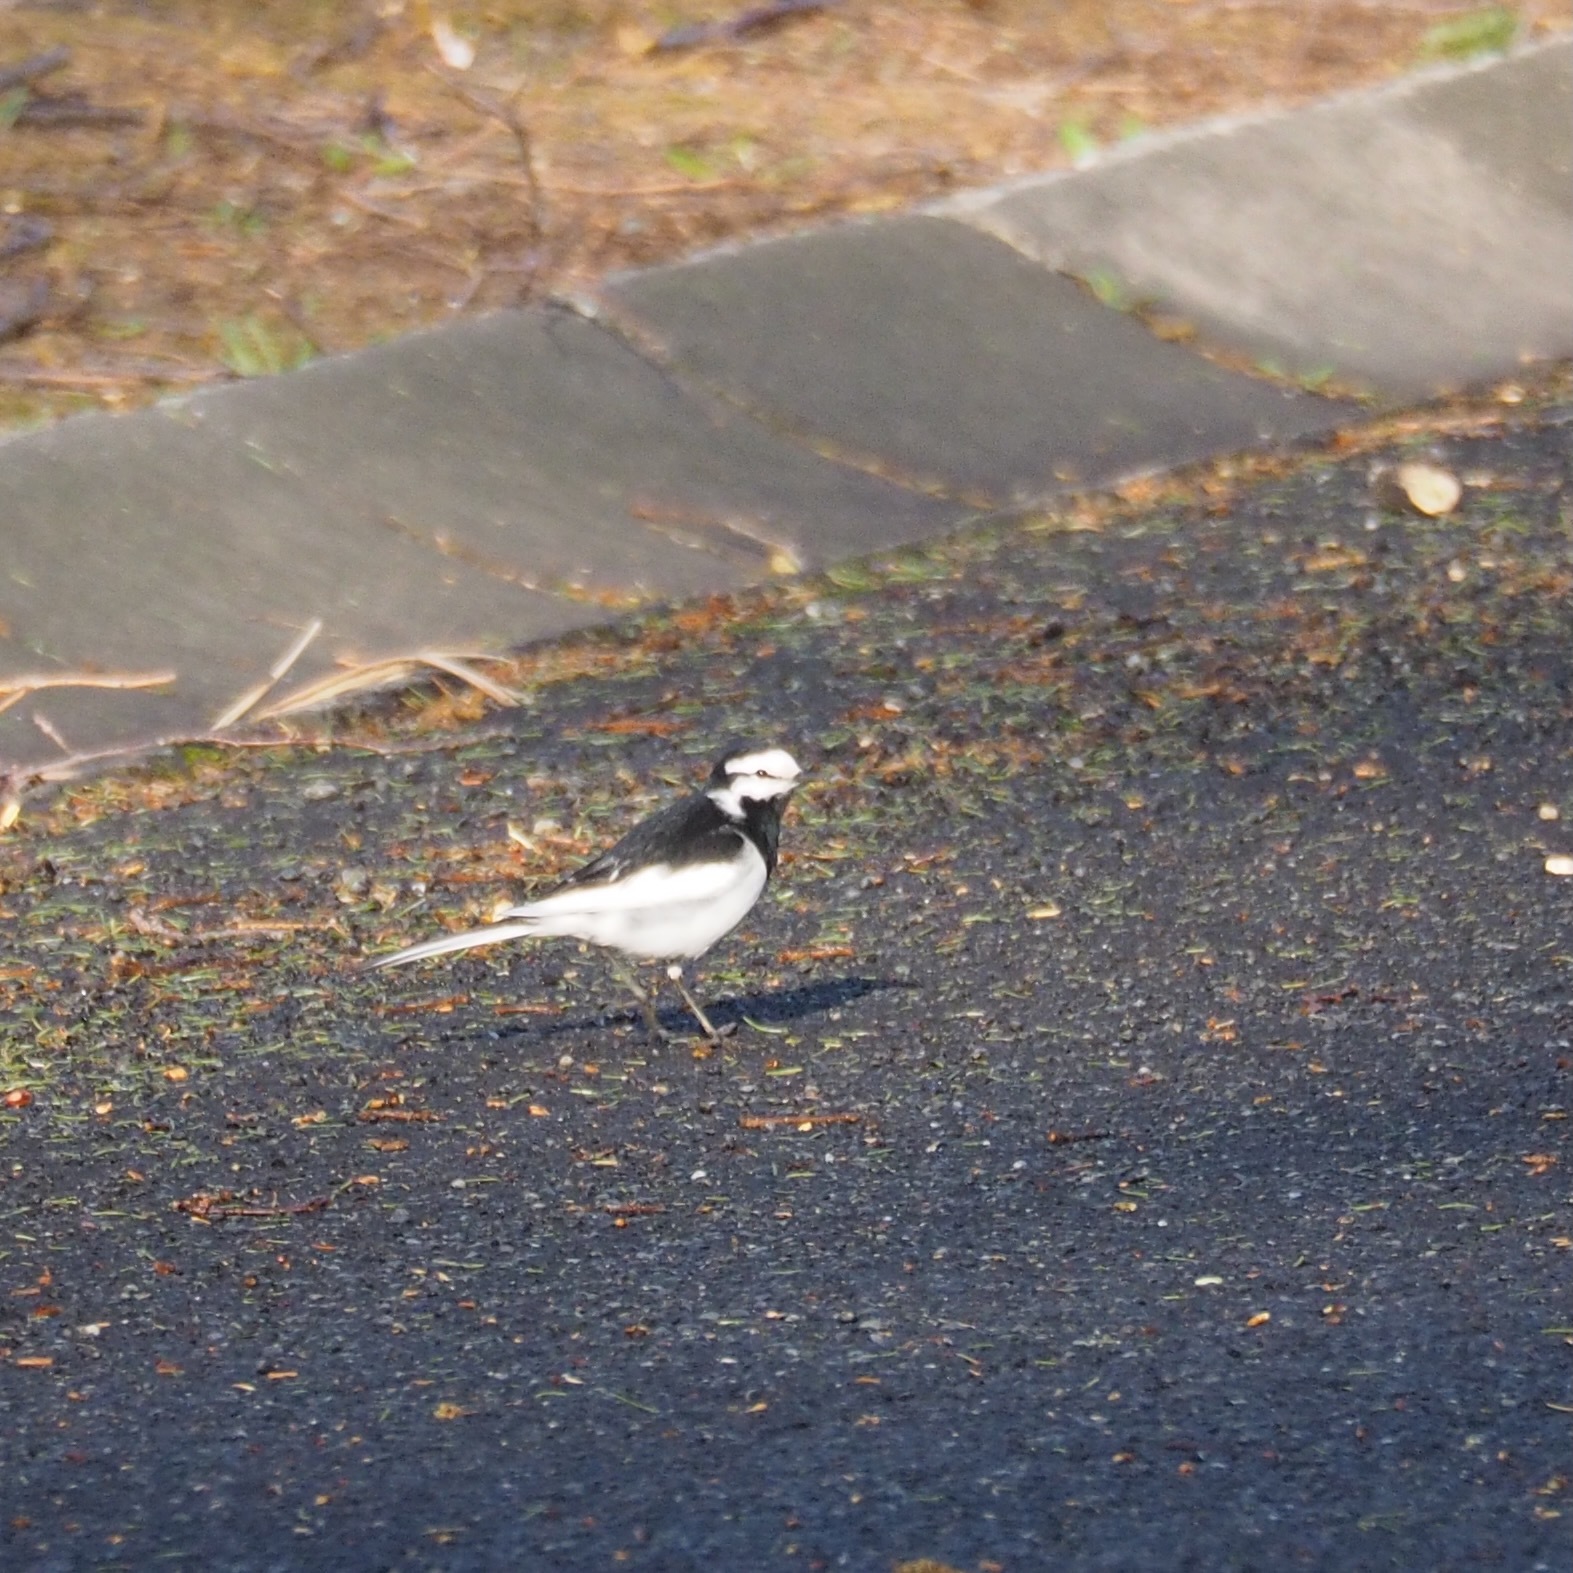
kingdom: Animalia
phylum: Chordata
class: Aves
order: Passeriformes
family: Motacillidae
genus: Motacilla
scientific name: Motacilla alba
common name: White wagtail
